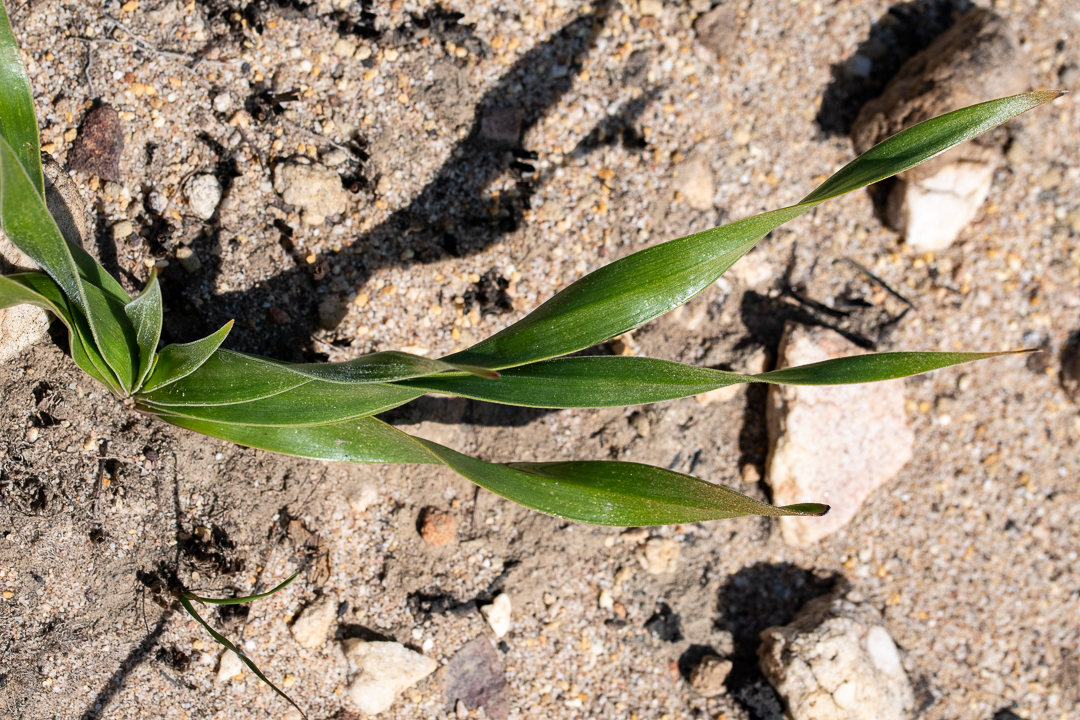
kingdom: Plantae
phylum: Tracheophyta
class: Liliopsida
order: Asparagales
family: Asphodelaceae
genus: Trachyandra
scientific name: Trachyandra hirsuta
